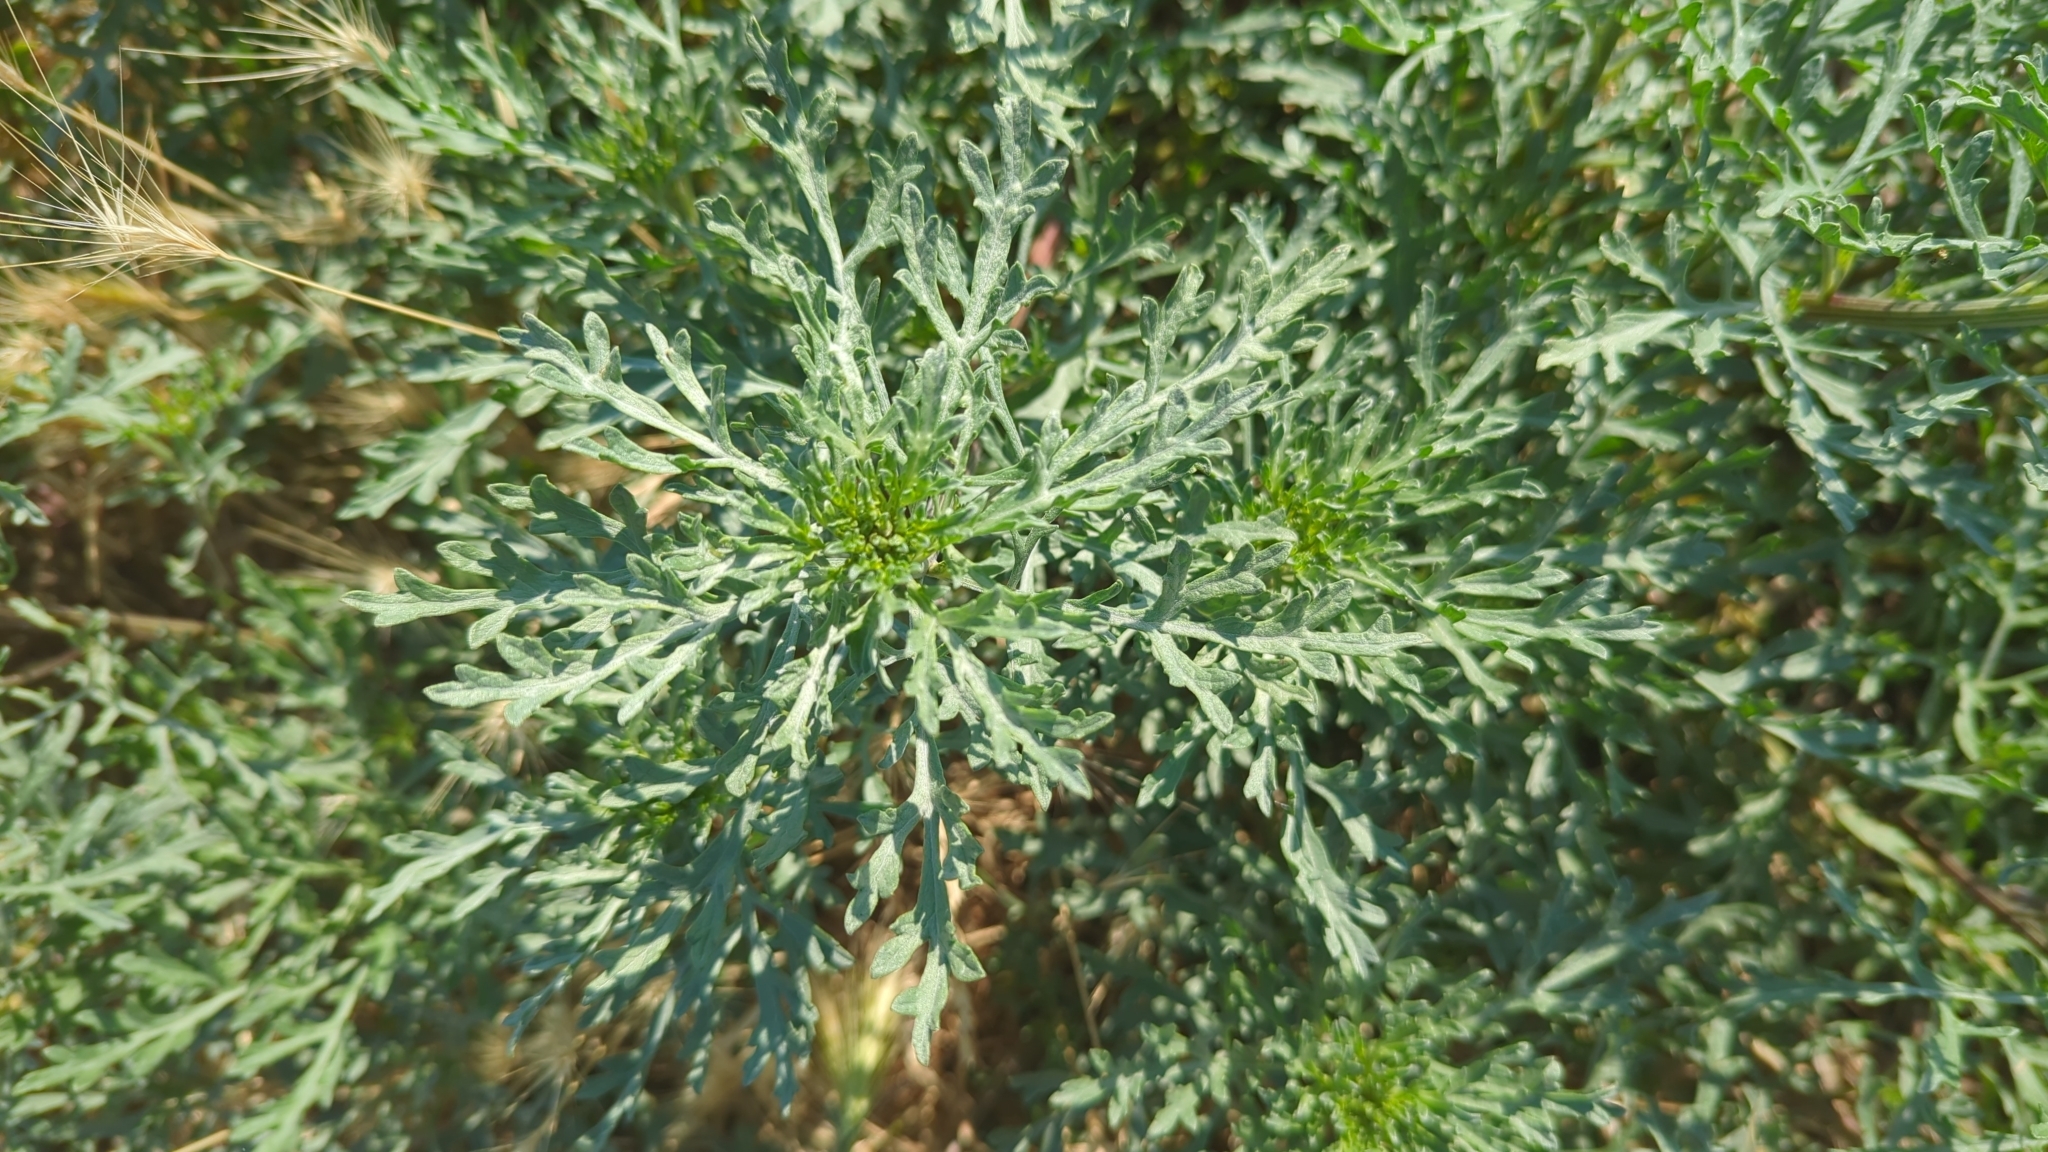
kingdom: Plantae
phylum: Tracheophyta
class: Magnoliopsida
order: Asterales
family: Asteraceae
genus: Ambrosia
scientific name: Ambrosia chamissonis
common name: Beachbur
